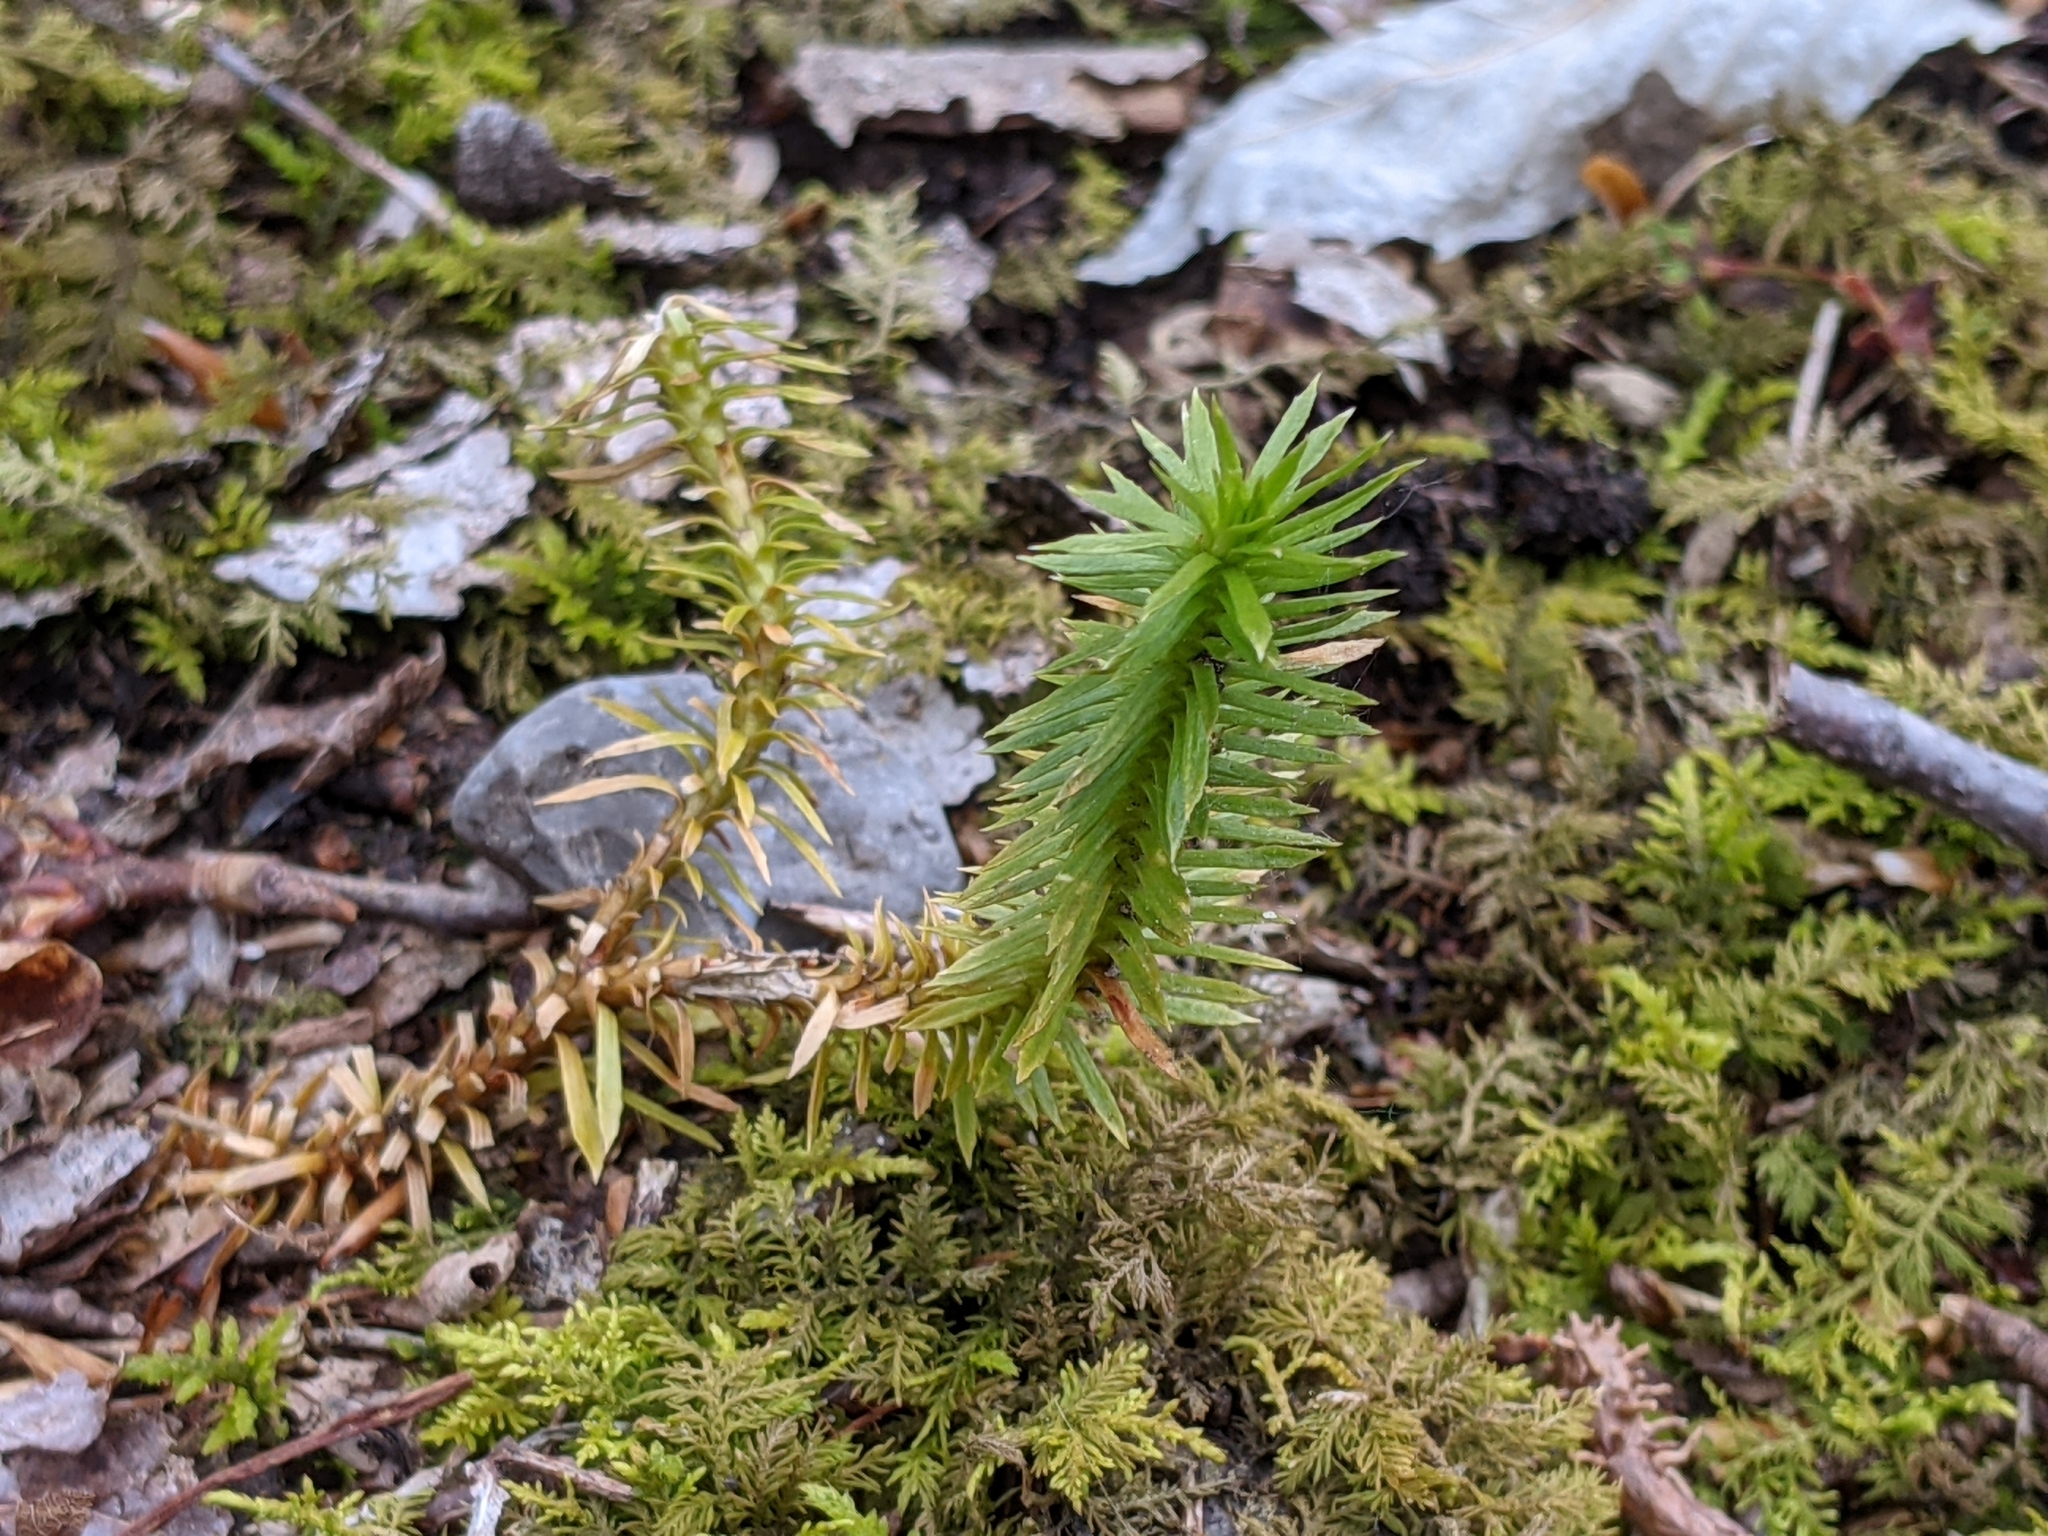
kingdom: Plantae
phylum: Tracheophyta
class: Lycopodiopsida
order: Lycopodiales
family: Lycopodiaceae
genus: Huperzia
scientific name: Huperzia lucidula
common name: Shining clubmoss
